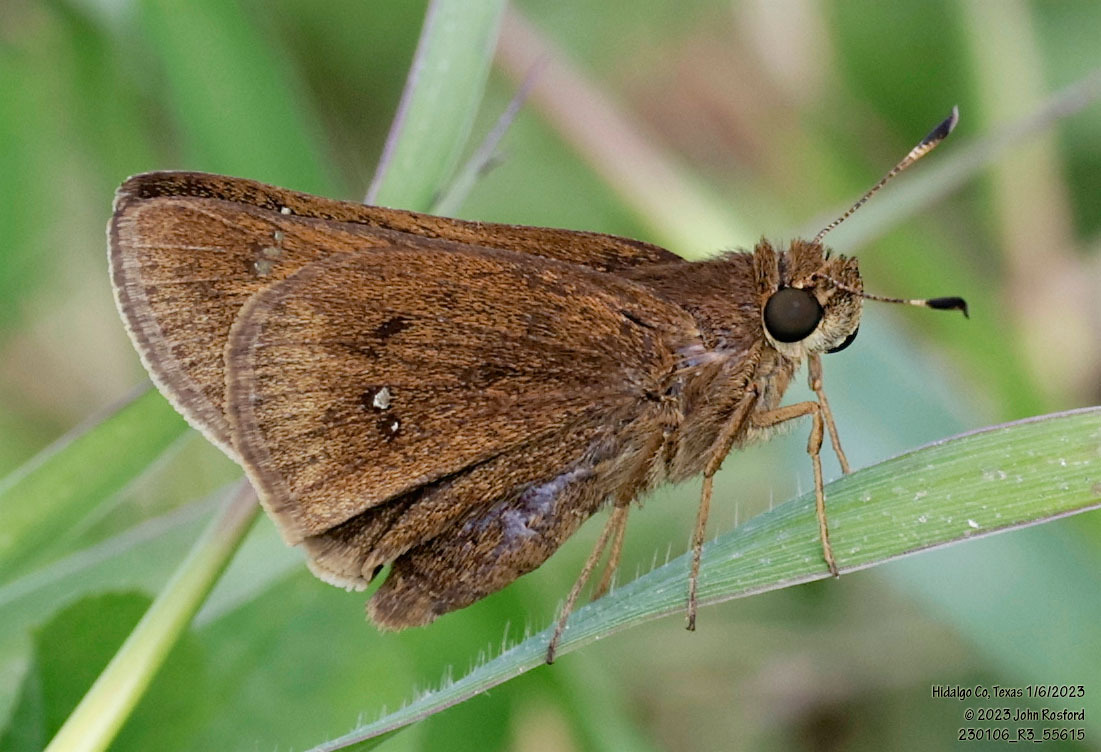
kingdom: Animalia
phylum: Arthropoda
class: Insecta
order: Lepidoptera
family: Hesperiidae
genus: Decinea
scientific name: Decinea percosius
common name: Double-dotted skipper
